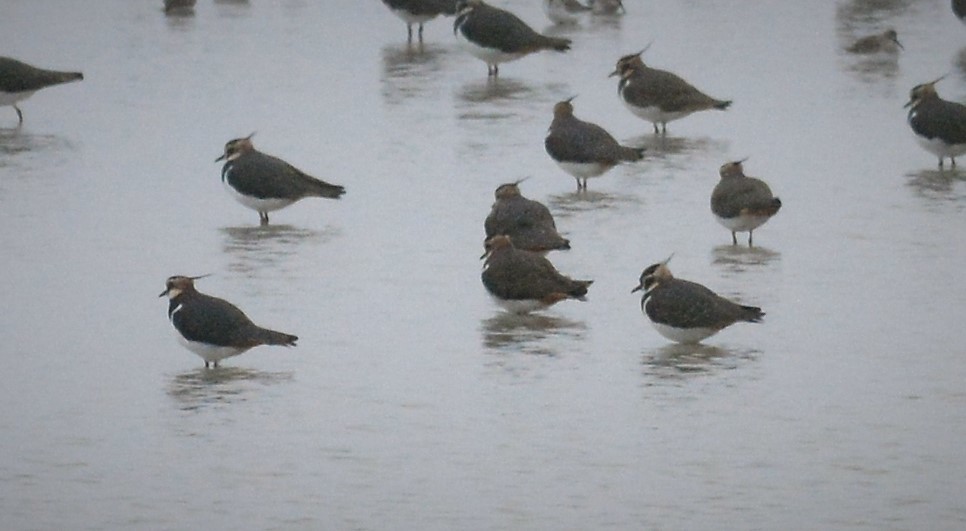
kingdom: Animalia
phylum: Chordata
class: Aves
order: Charadriiformes
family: Charadriidae
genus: Vanellus
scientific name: Vanellus vanellus
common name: Northern lapwing
